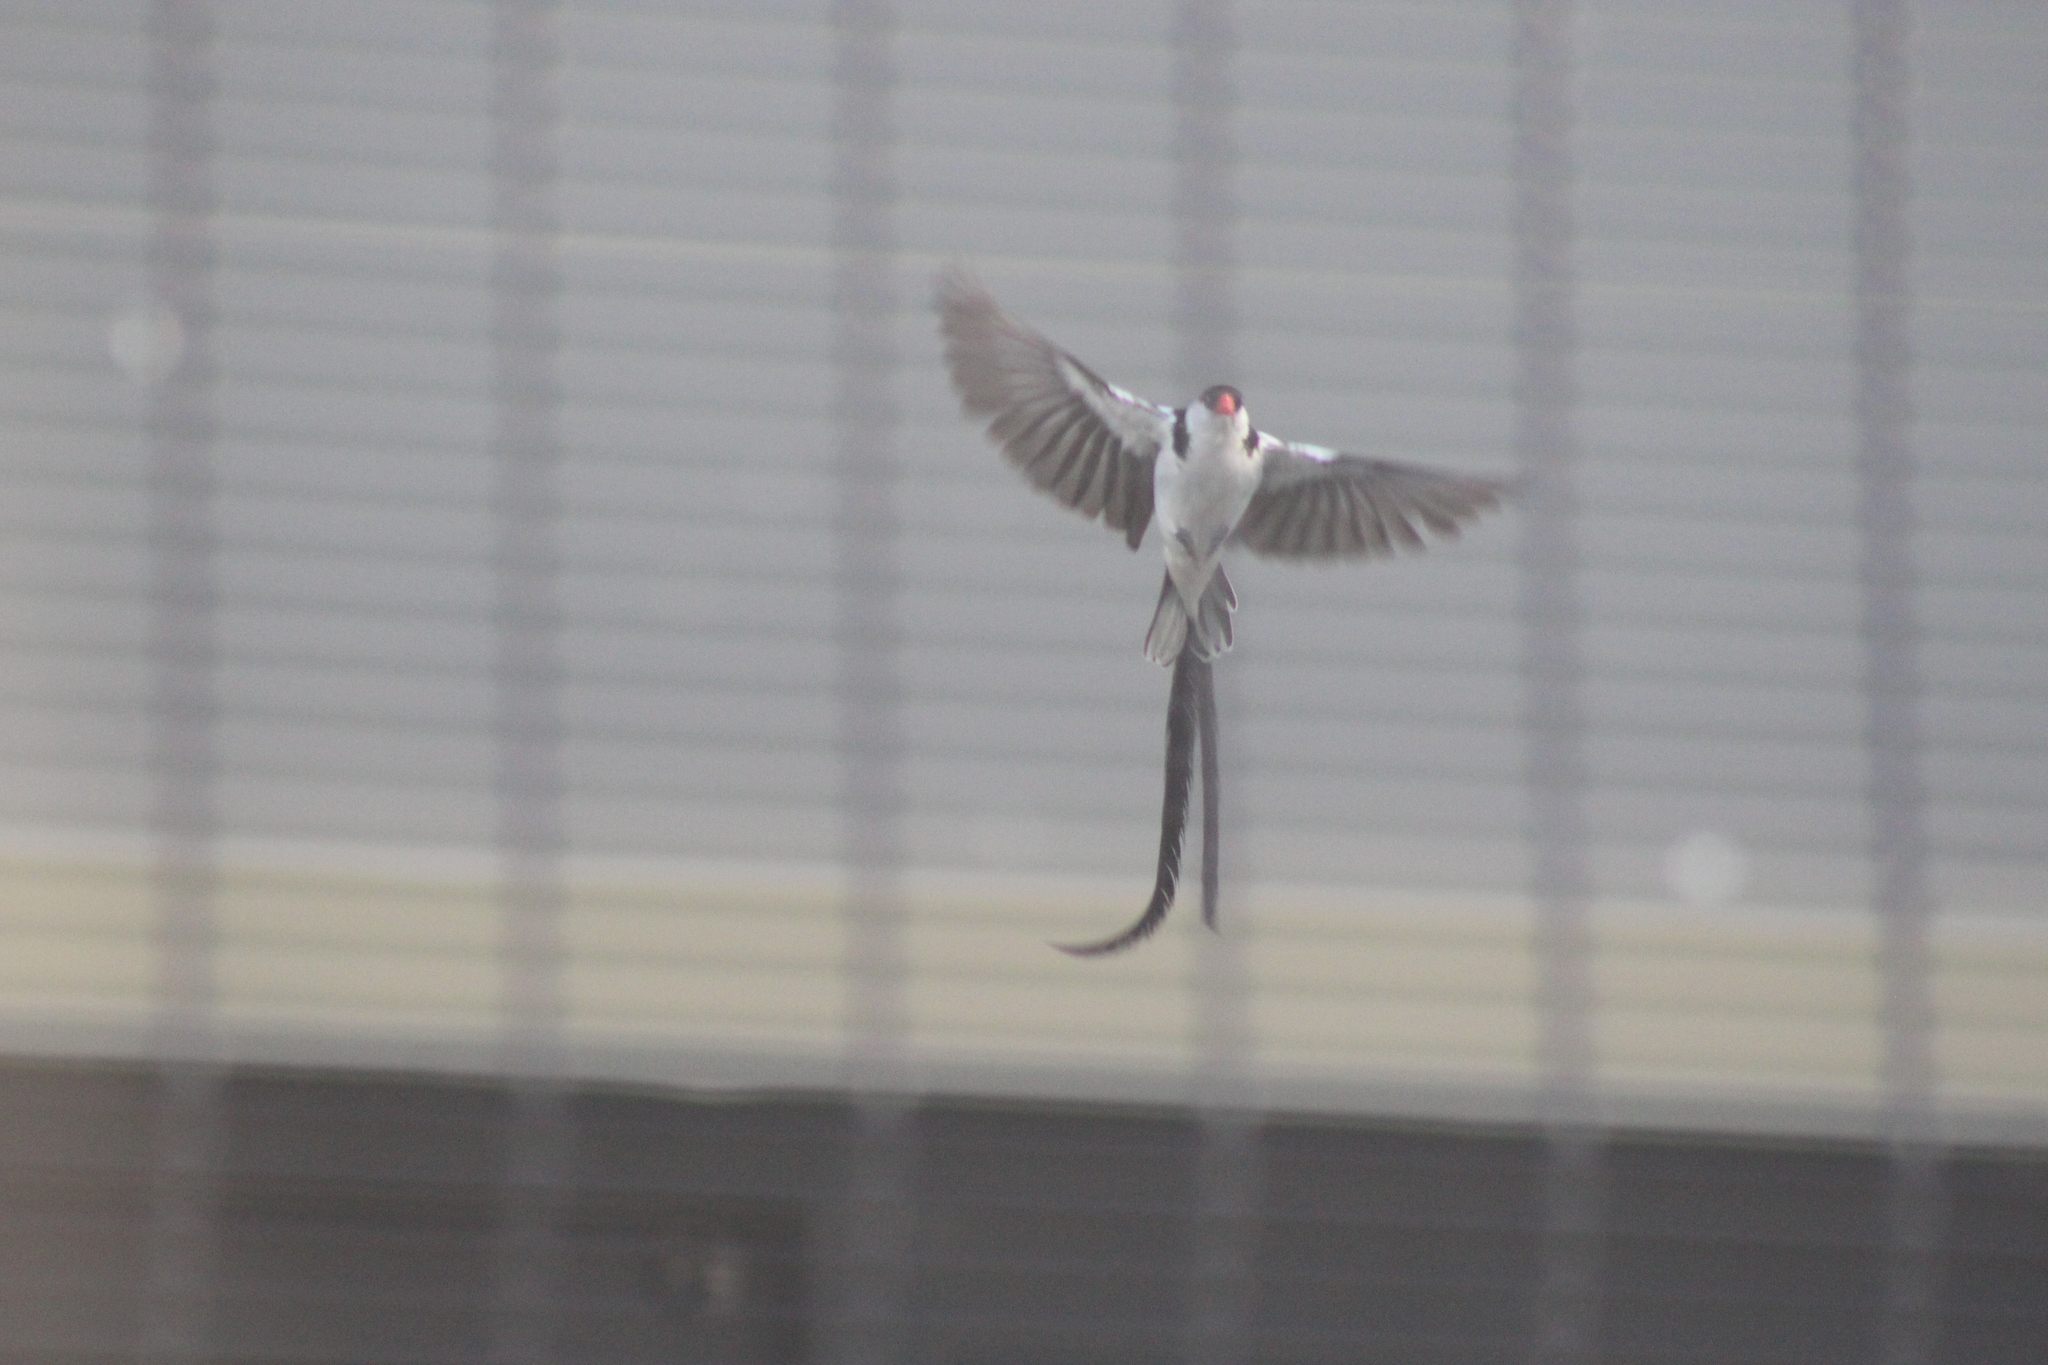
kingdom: Animalia
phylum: Chordata
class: Aves
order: Passeriformes
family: Viduidae
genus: Vidua
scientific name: Vidua macroura
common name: Pin-tailed whydah
